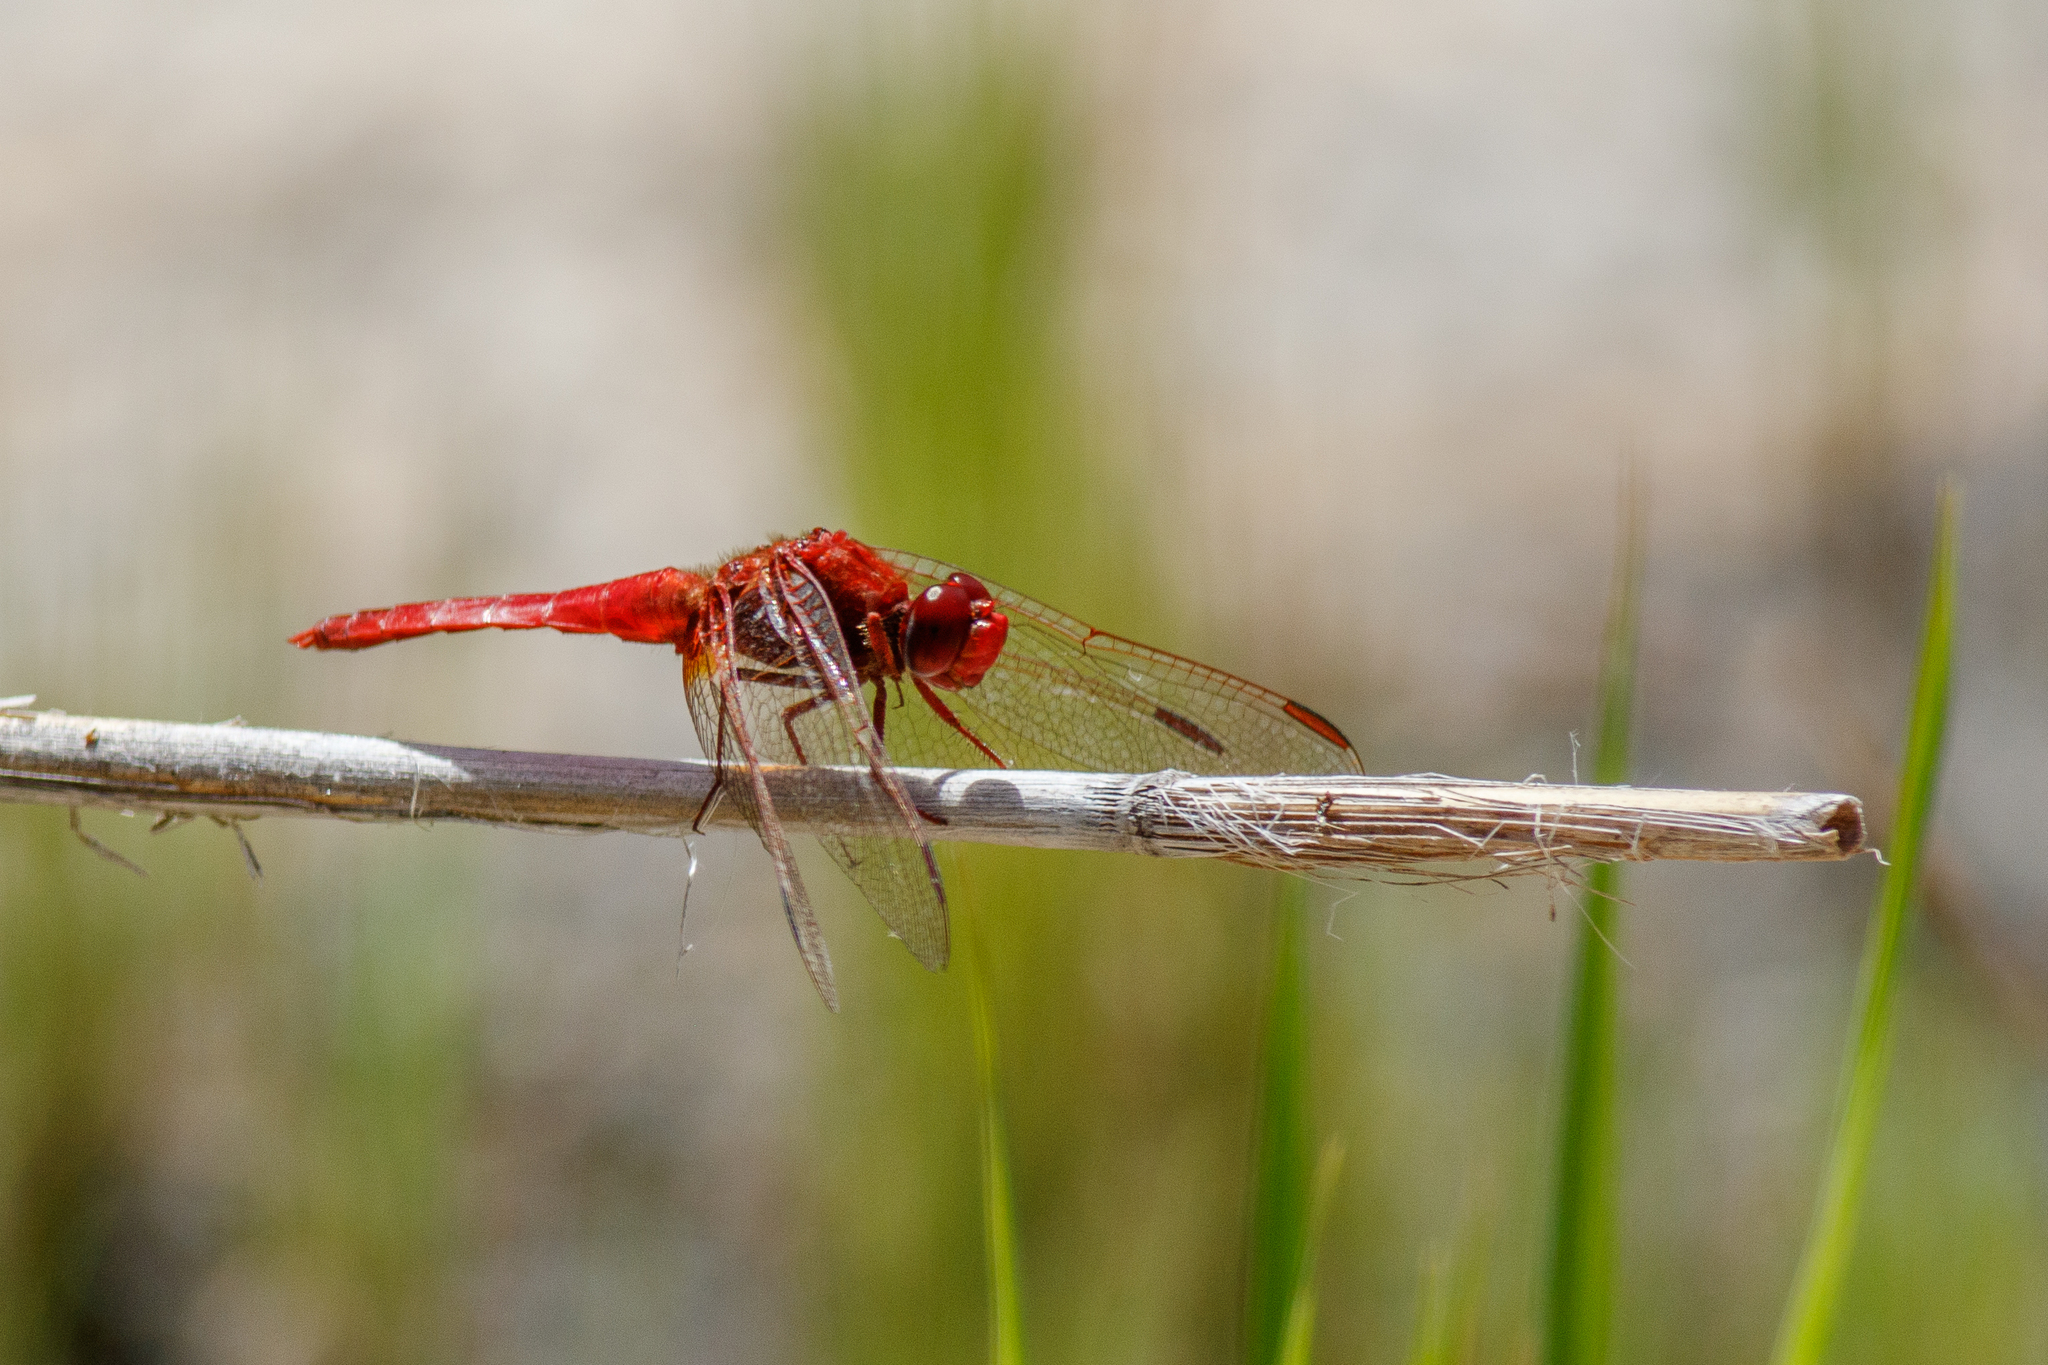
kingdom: Animalia
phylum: Arthropoda
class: Insecta
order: Odonata
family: Libellulidae
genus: Crocothemis
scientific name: Crocothemis erythraea
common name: Scarlet dragonfly
